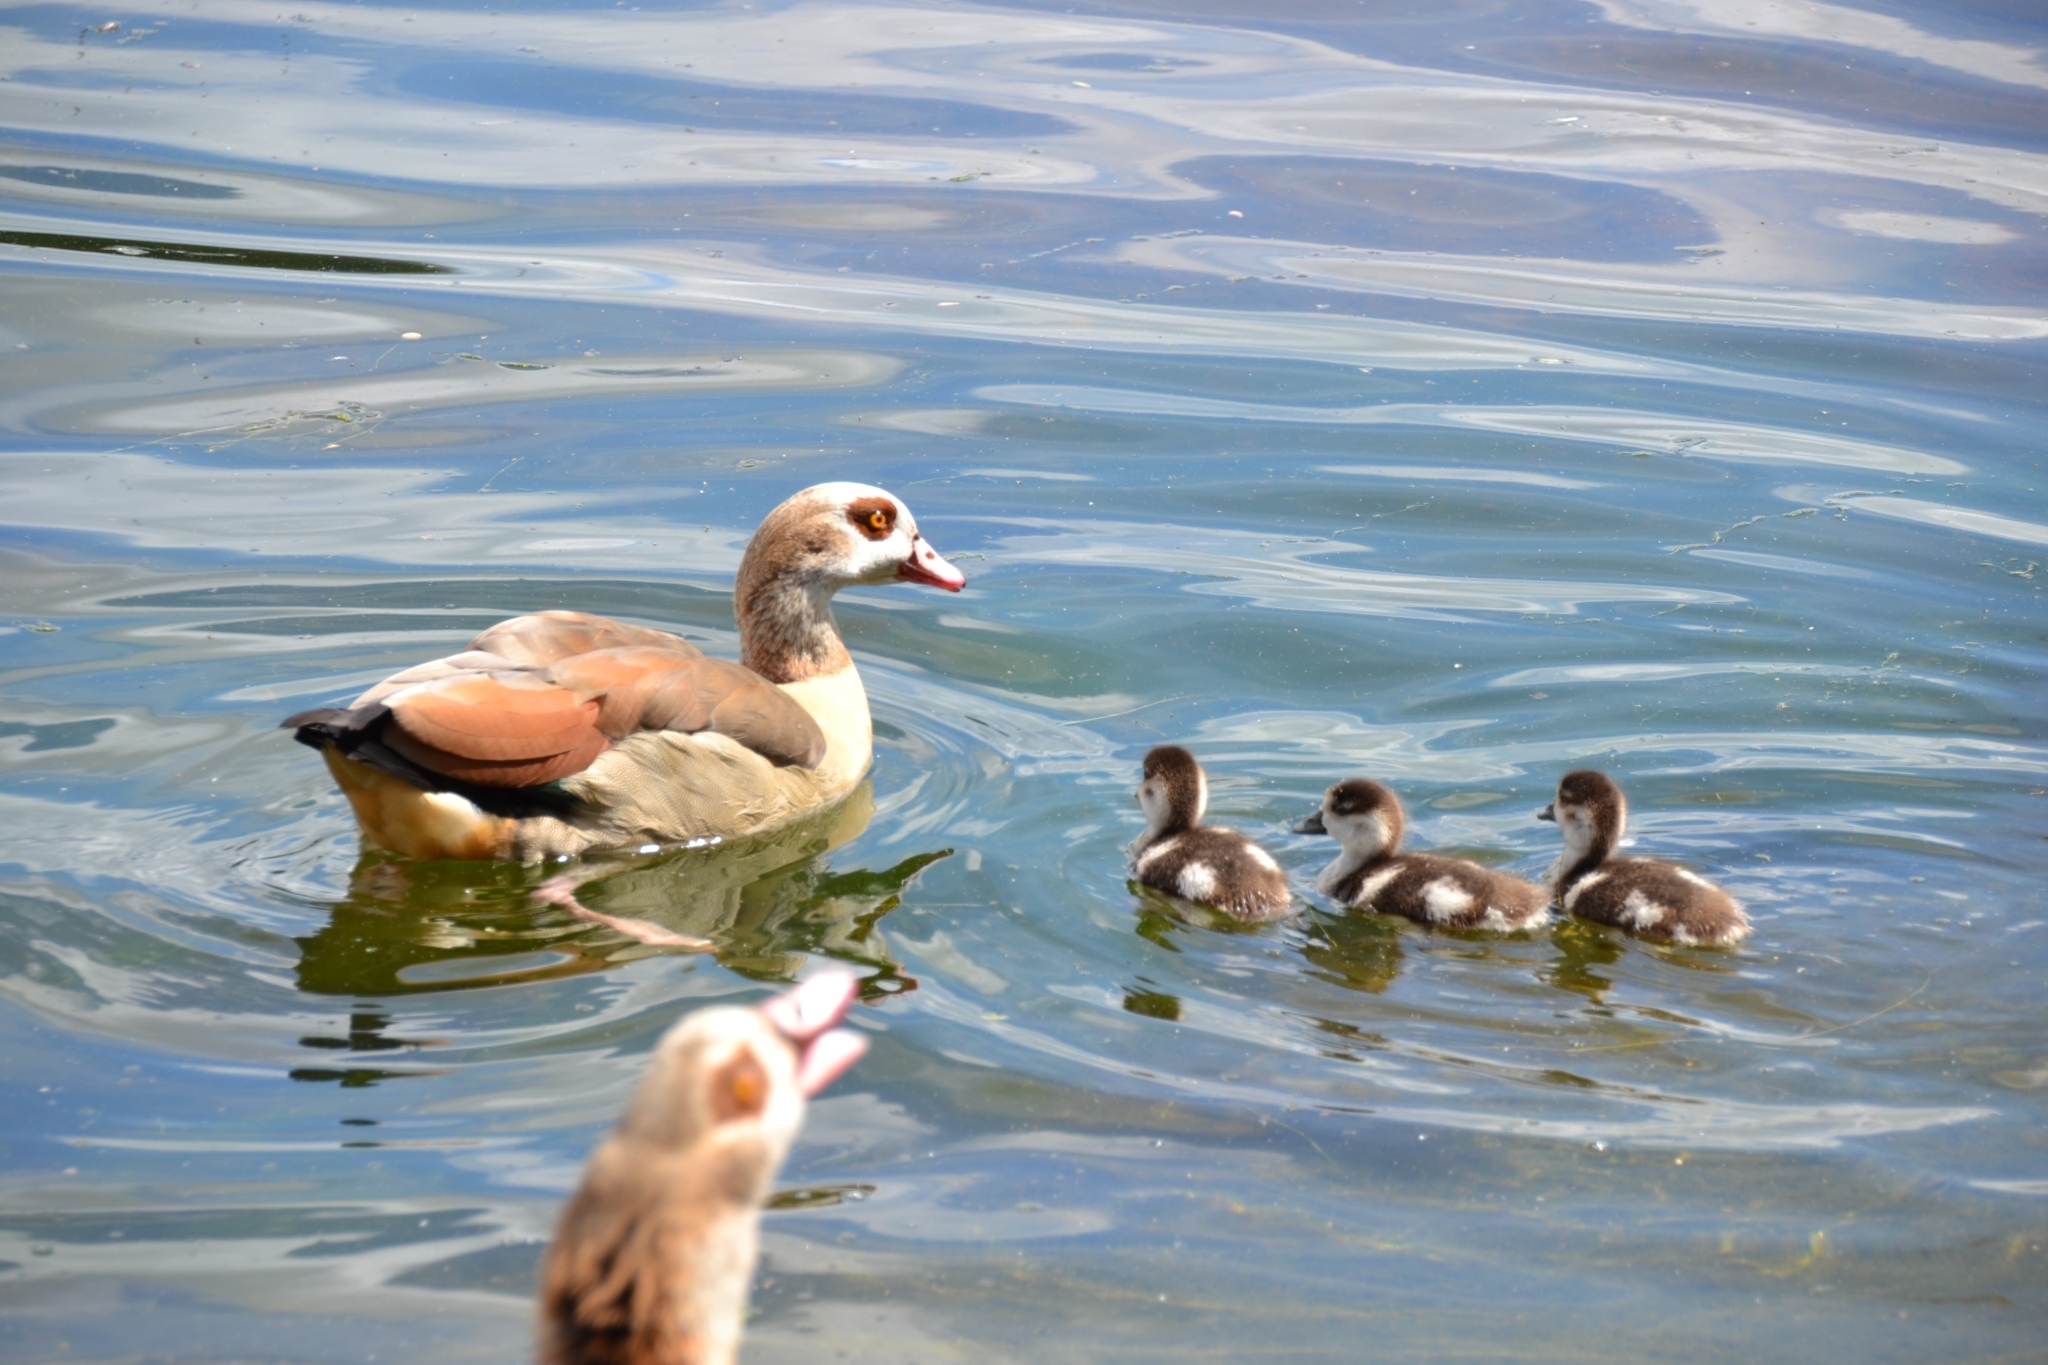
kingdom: Animalia
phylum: Chordata
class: Aves
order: Anseriformes
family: Anatidae
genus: Alopochen
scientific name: Alopochen aegyptiaca
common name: Egyptian goose
